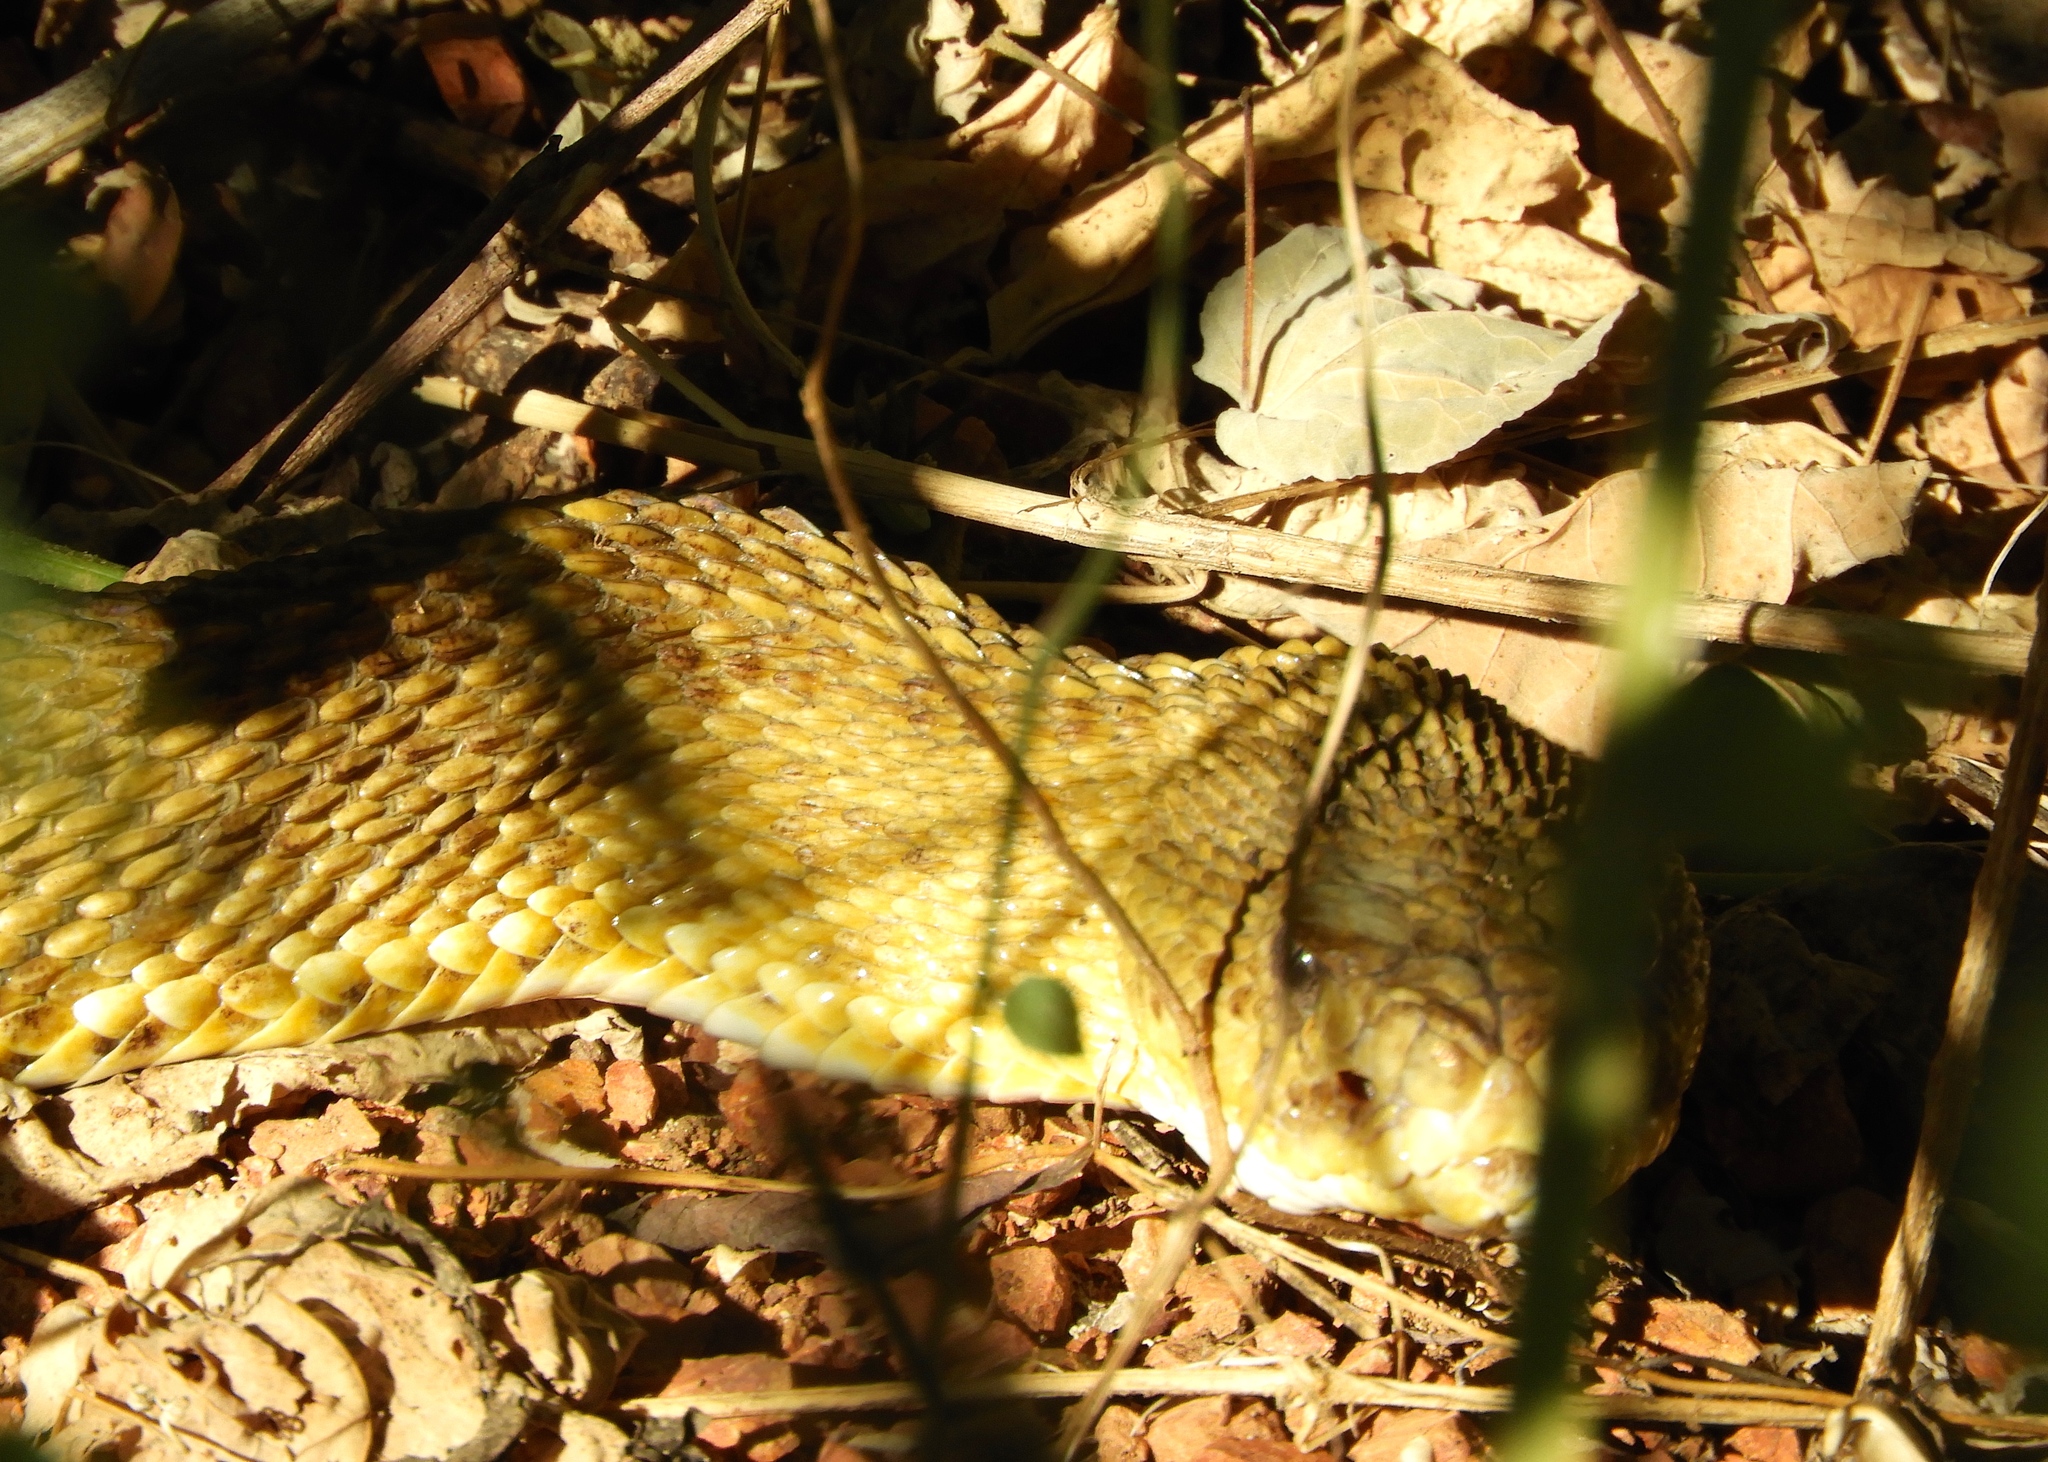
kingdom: Animalia
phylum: Chordata
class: Squamata
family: Viperidae
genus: Crotalus
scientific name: Crotalus basiliscus
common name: Basilisk rattlesnake
